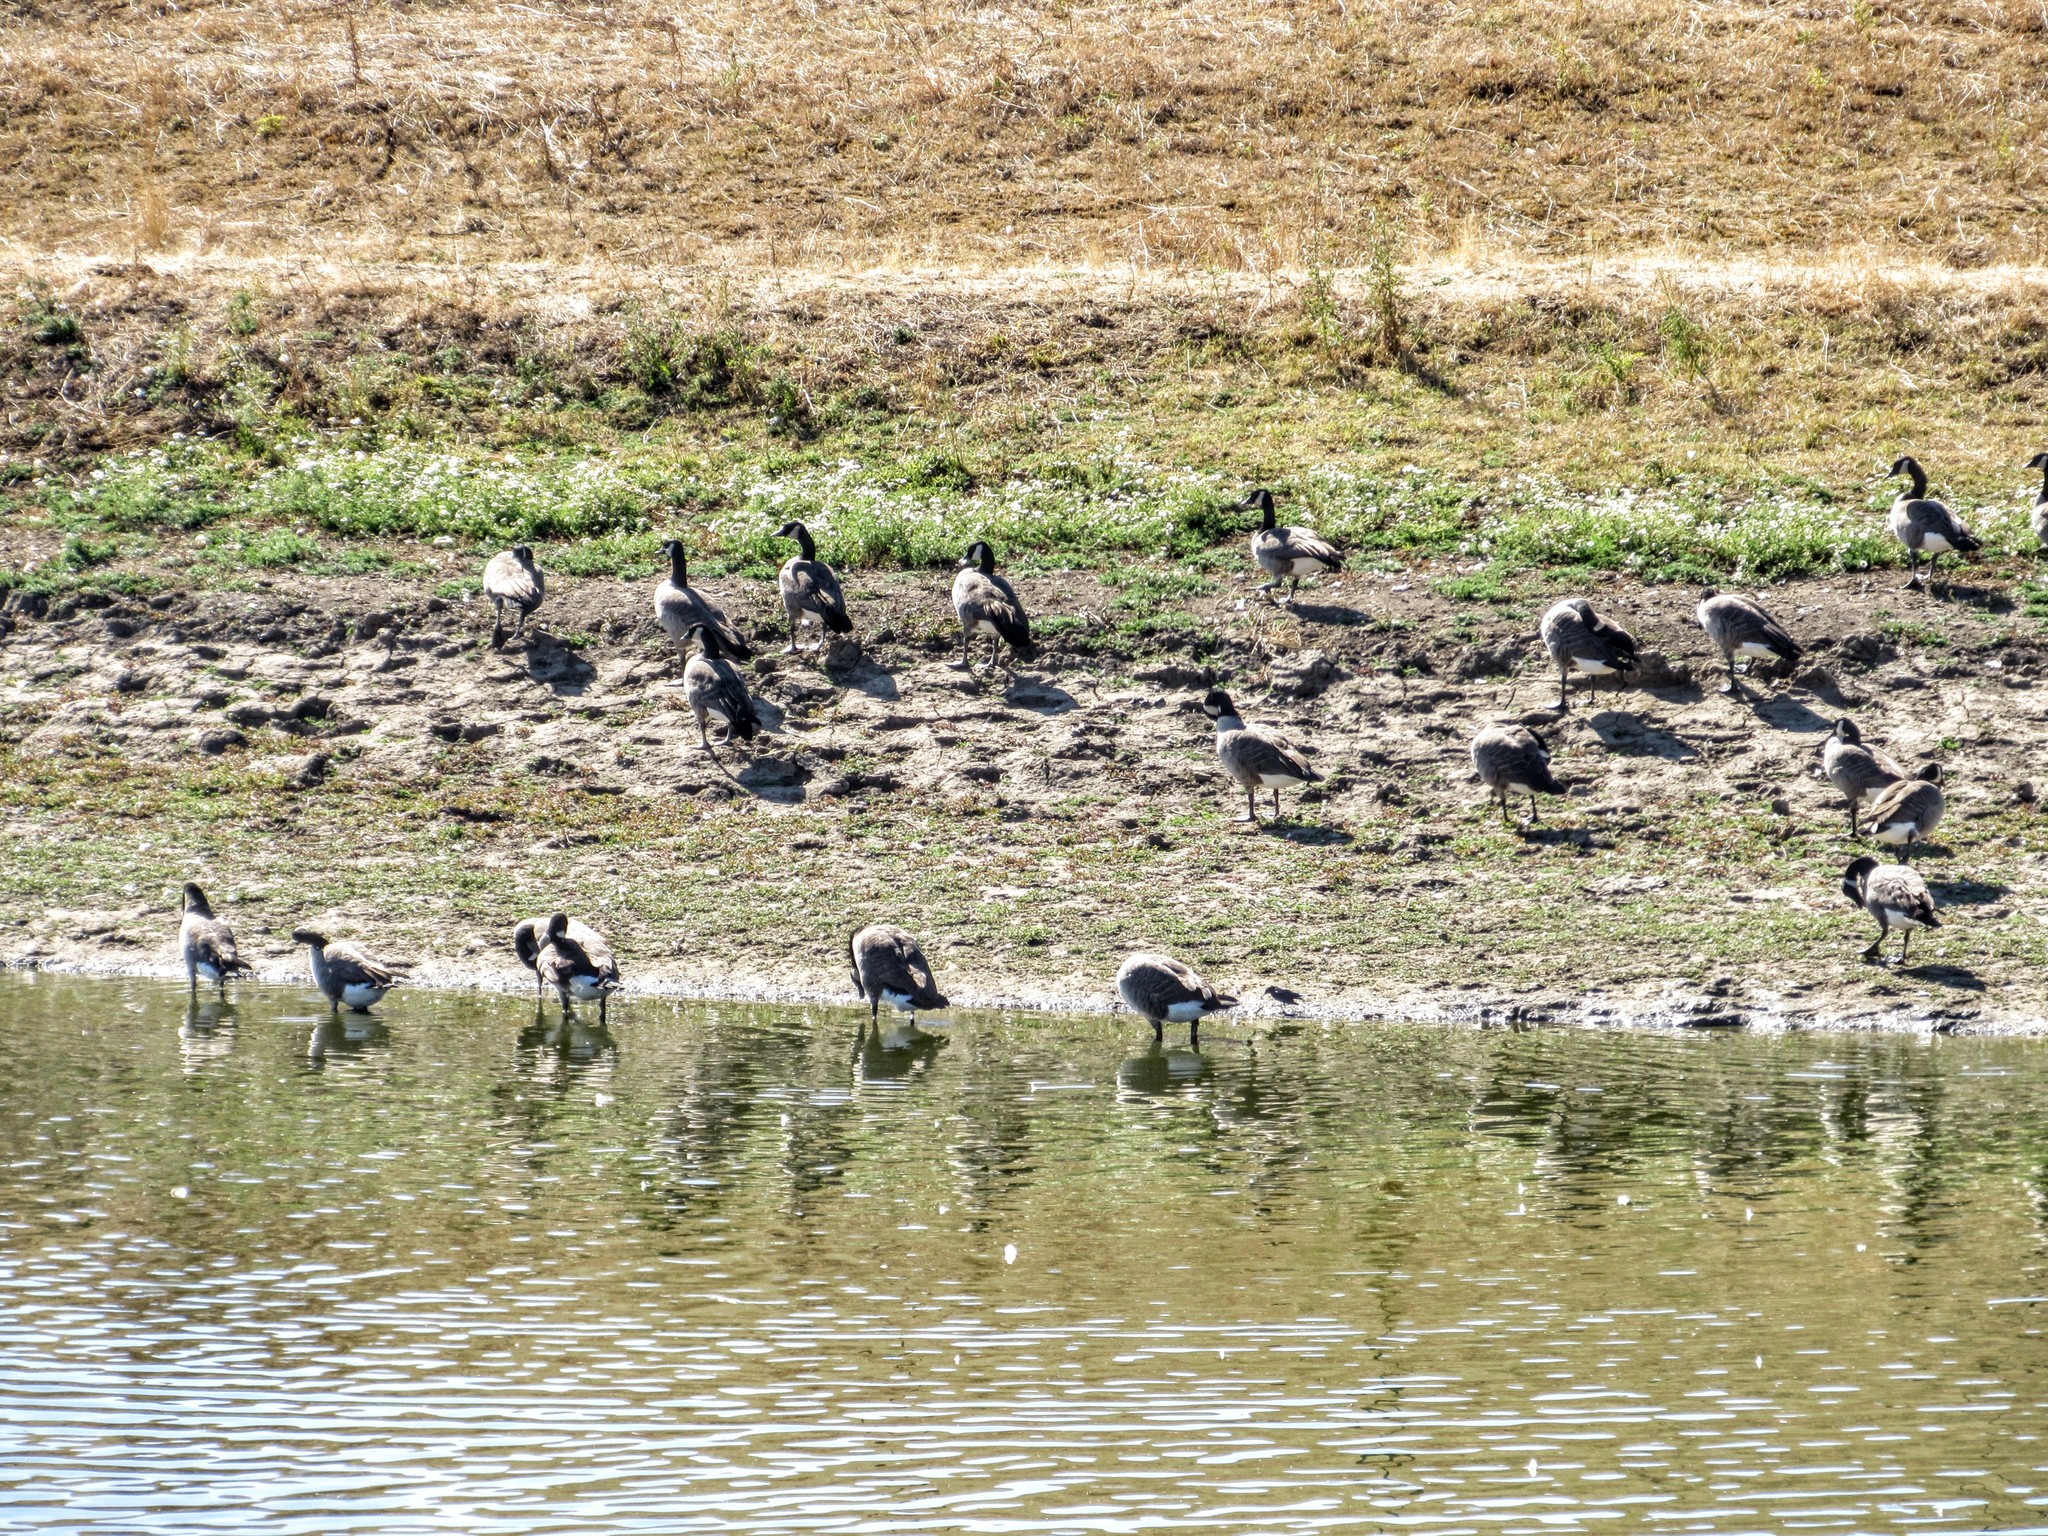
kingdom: Animalia
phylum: Chordata
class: Aves
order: Anseriformes
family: Anatidae
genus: Branta
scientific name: Branta canadensis
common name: Canada goose
